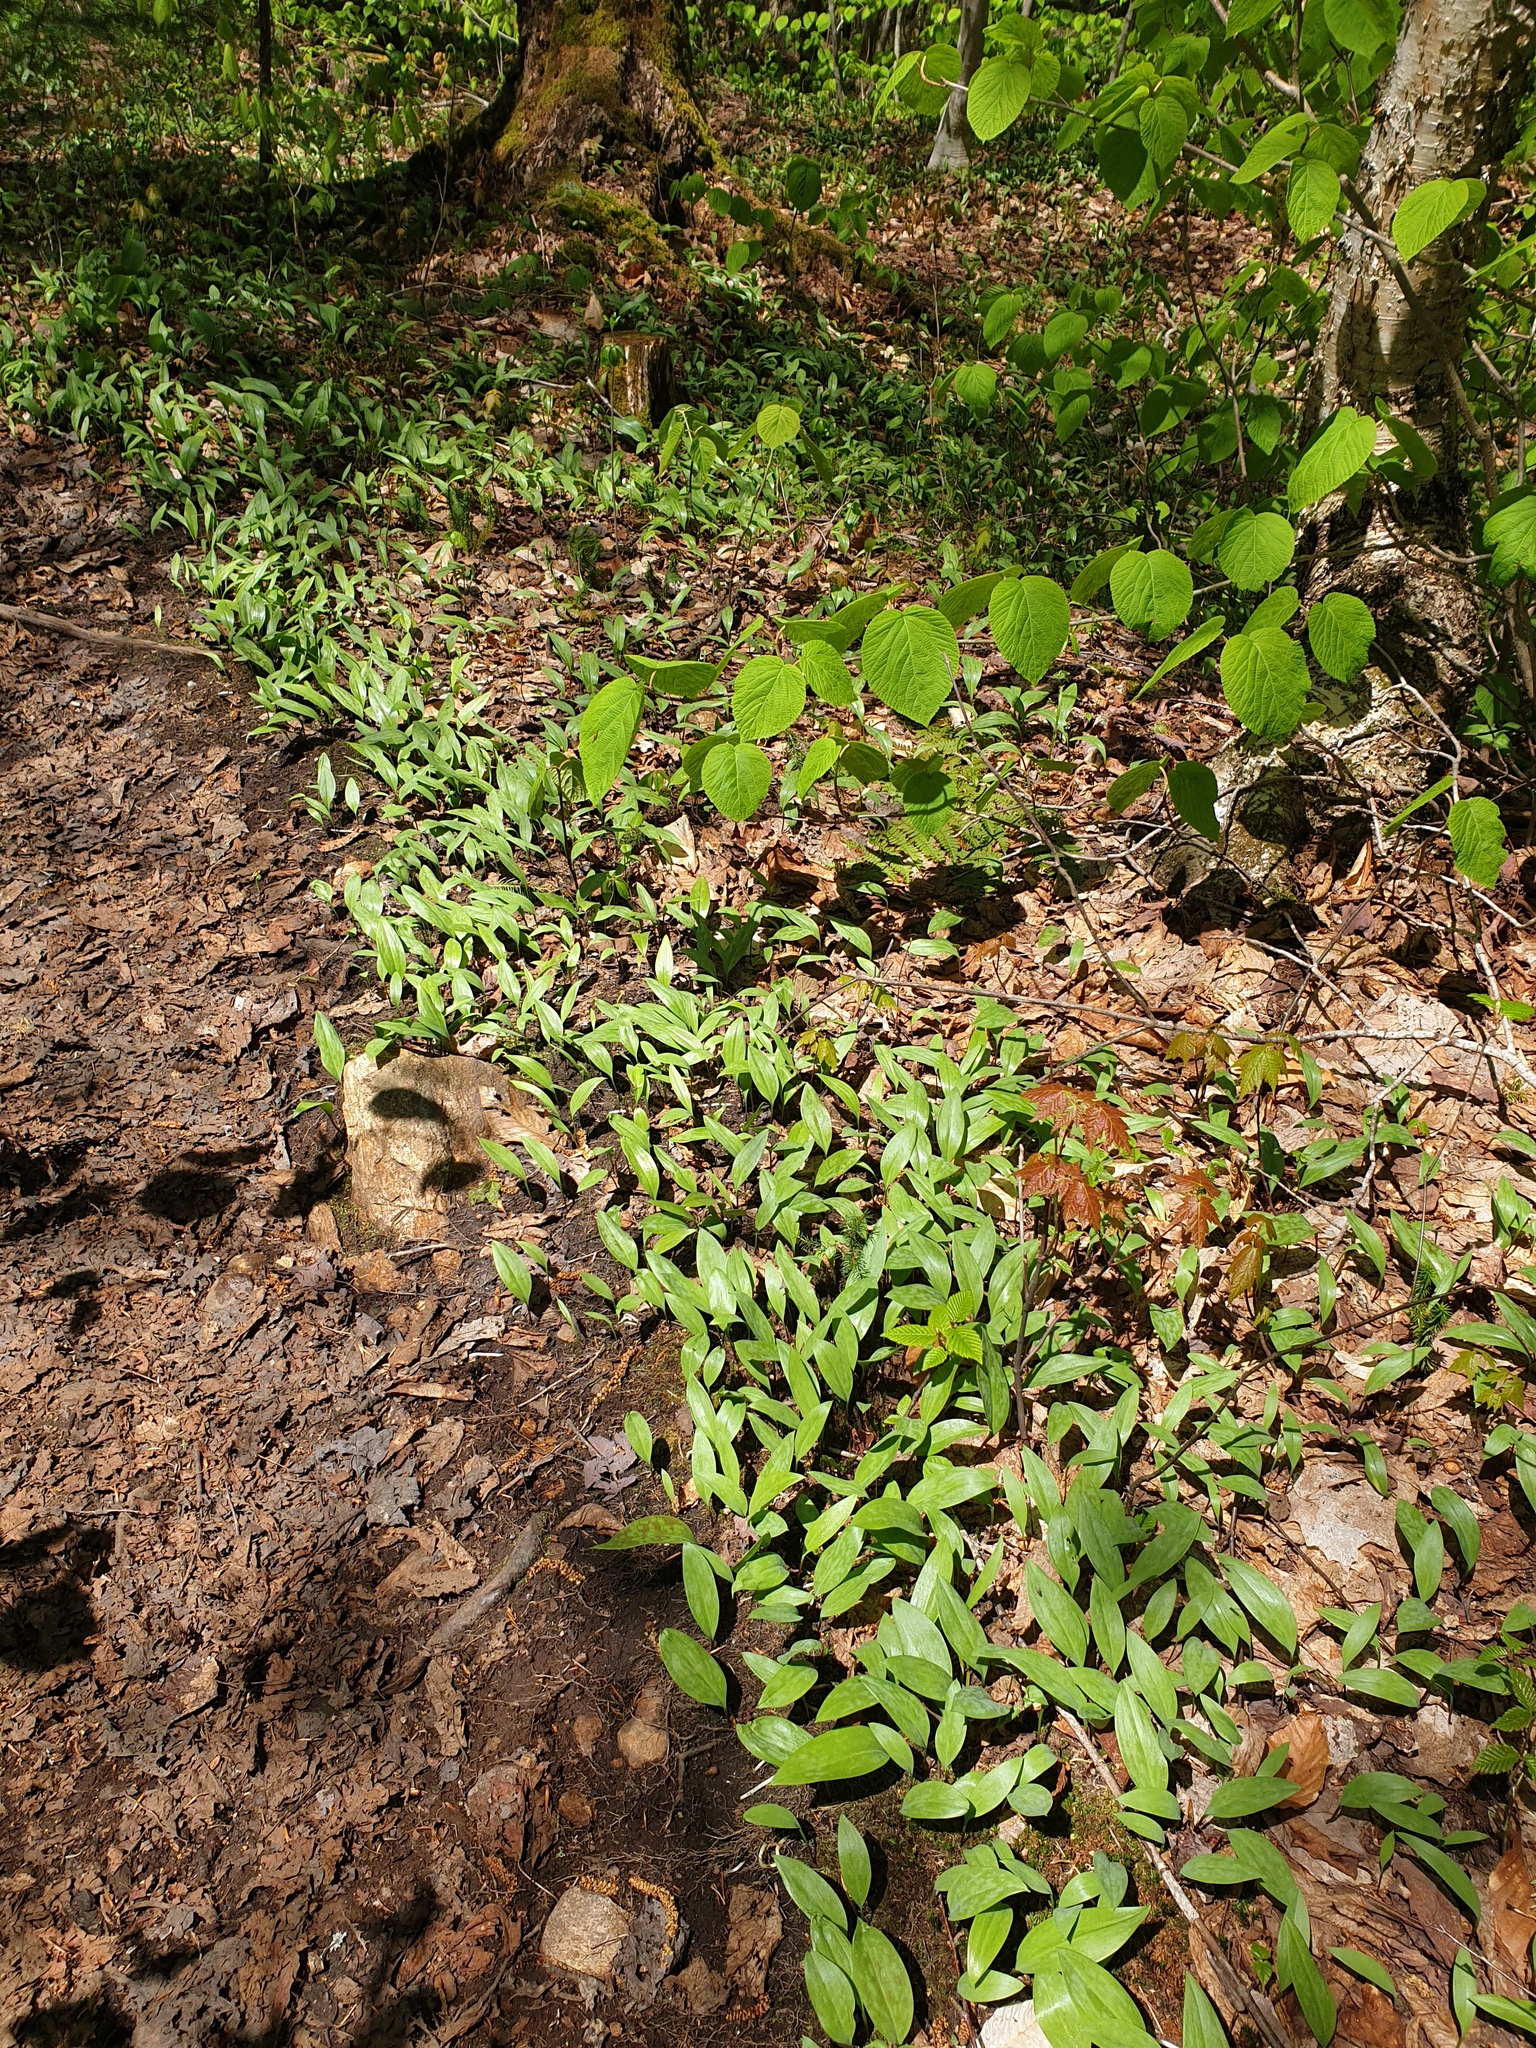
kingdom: Plantae
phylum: Tracheophyta
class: Liliopsida
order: Liliales
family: Liliaceae
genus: Erythronium
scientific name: Erythronium americanum
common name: Yellow adder's-tongue
